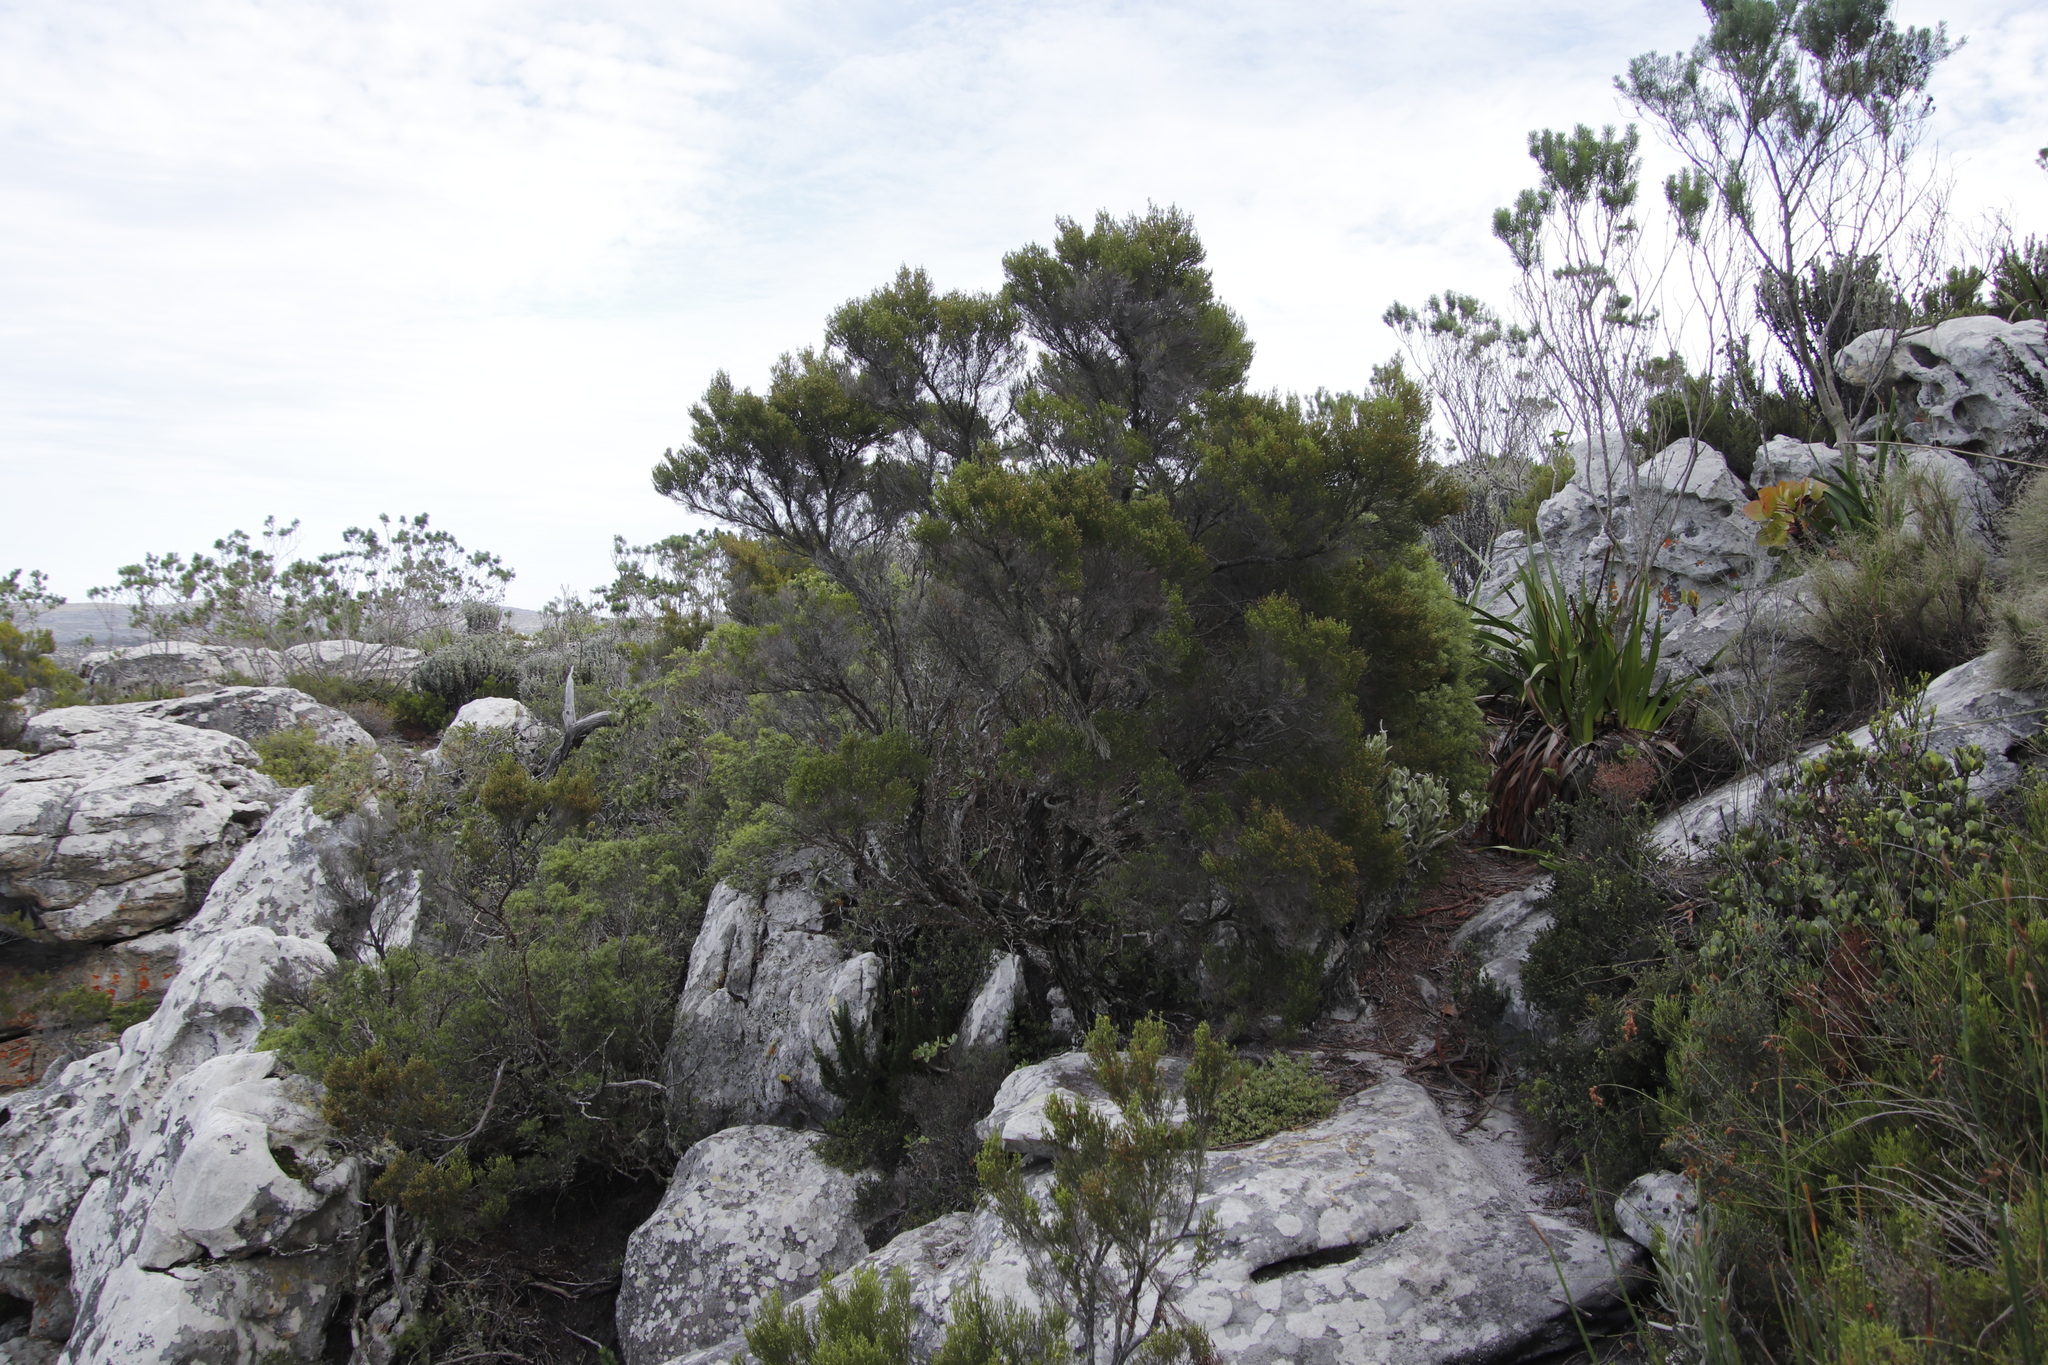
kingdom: Plantae
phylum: Tracheophyta
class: Magnoliopsida
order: Ericales
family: Ericaceae
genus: Erica
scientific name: Erica tristis
